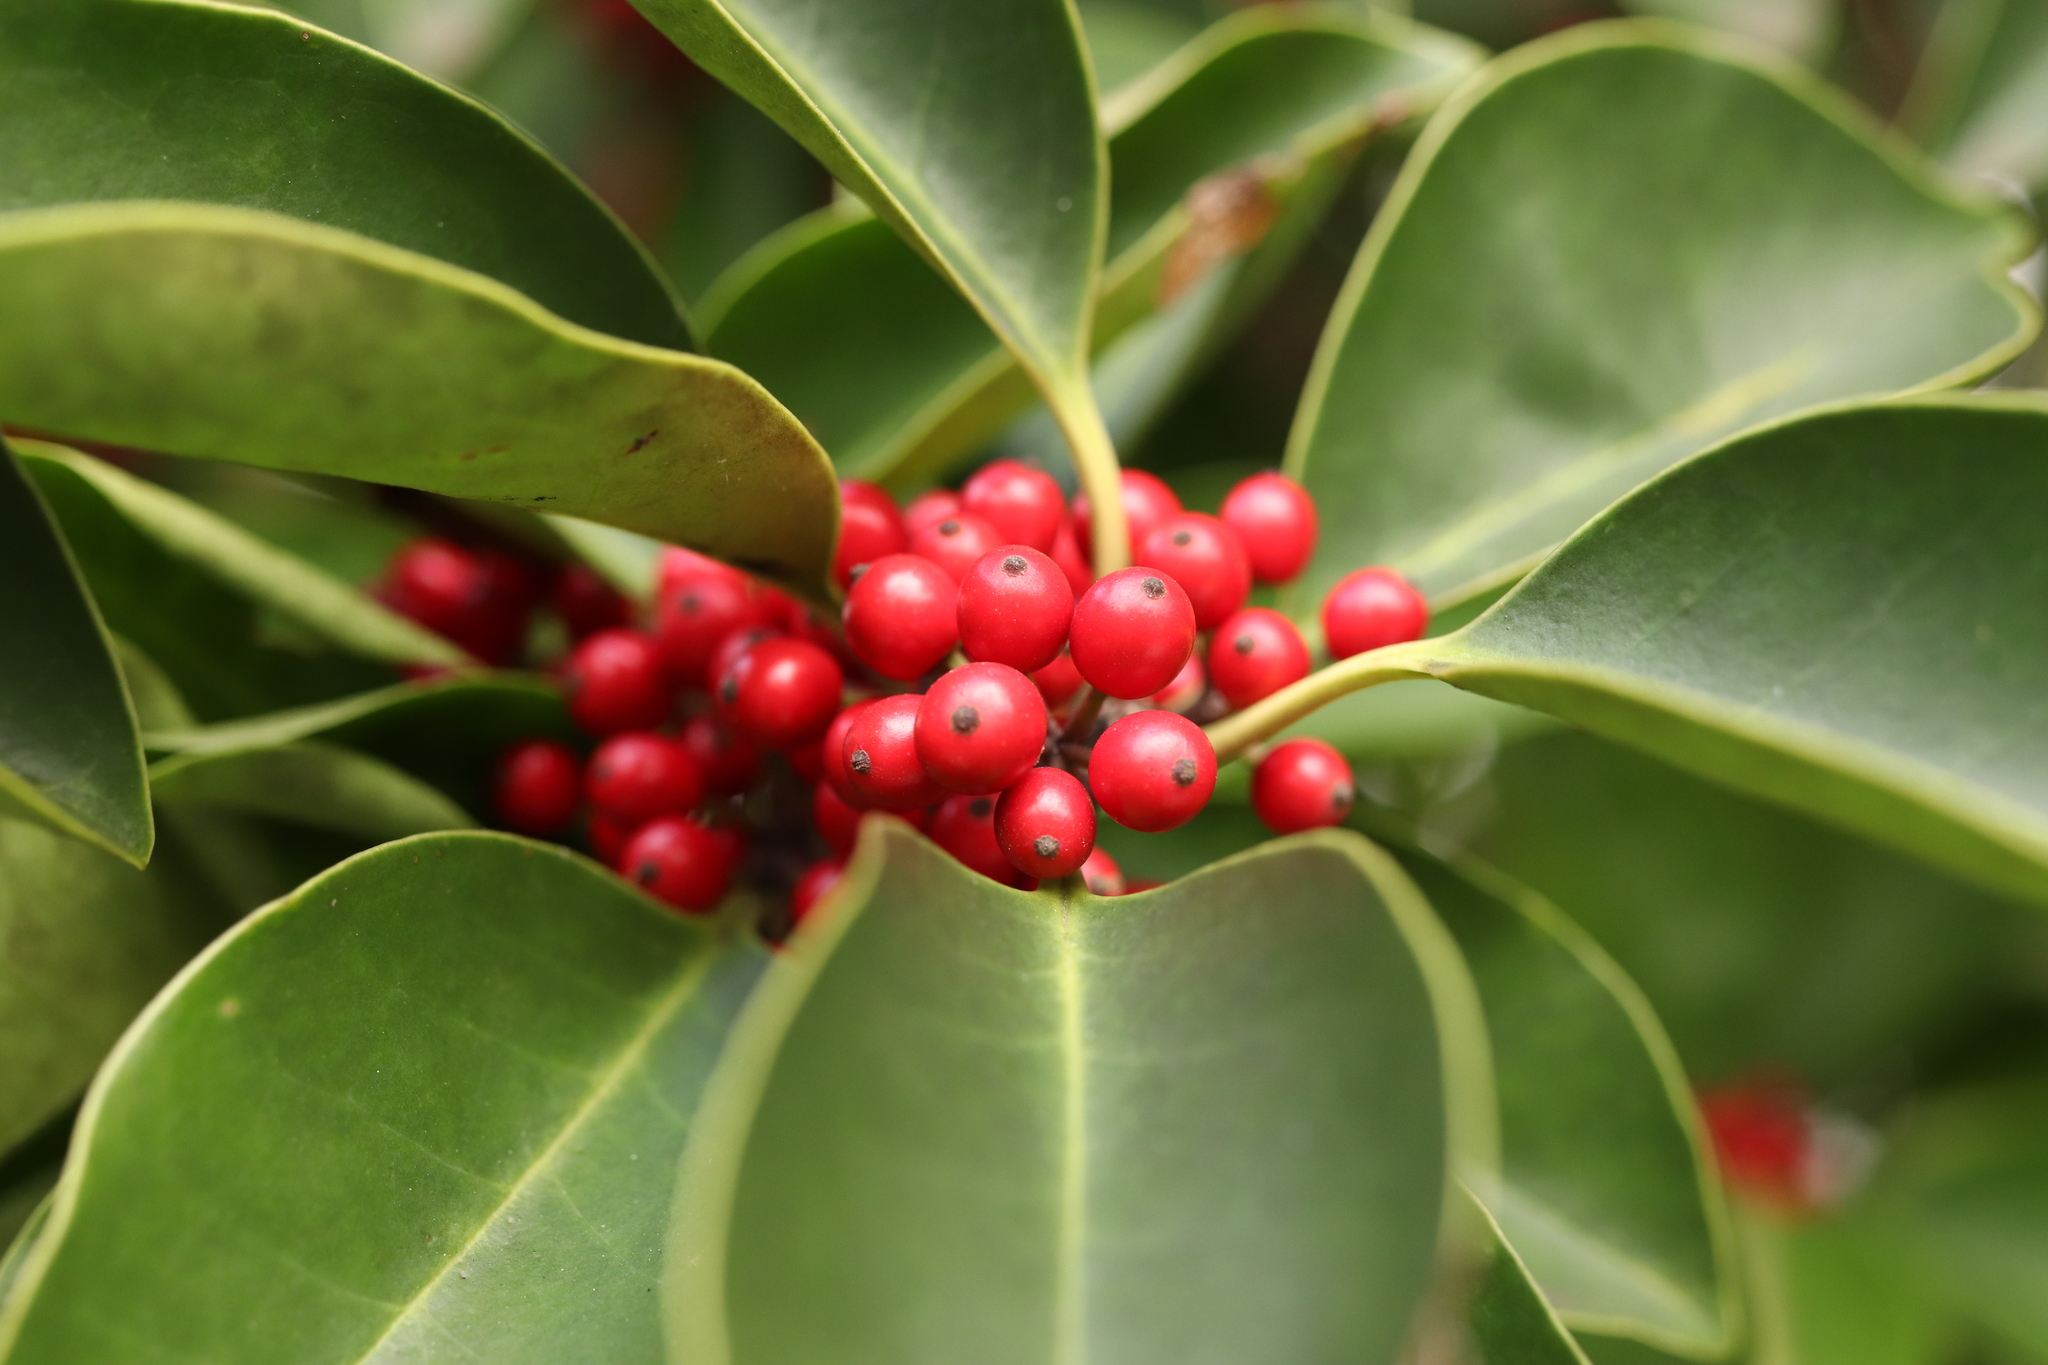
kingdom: Plantae
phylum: Tracheophyta
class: Magnoliopsida
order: Aquifoliales
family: Aquifoliaceae
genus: Ilex
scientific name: Ilex rotunda
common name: Kurogane holly
